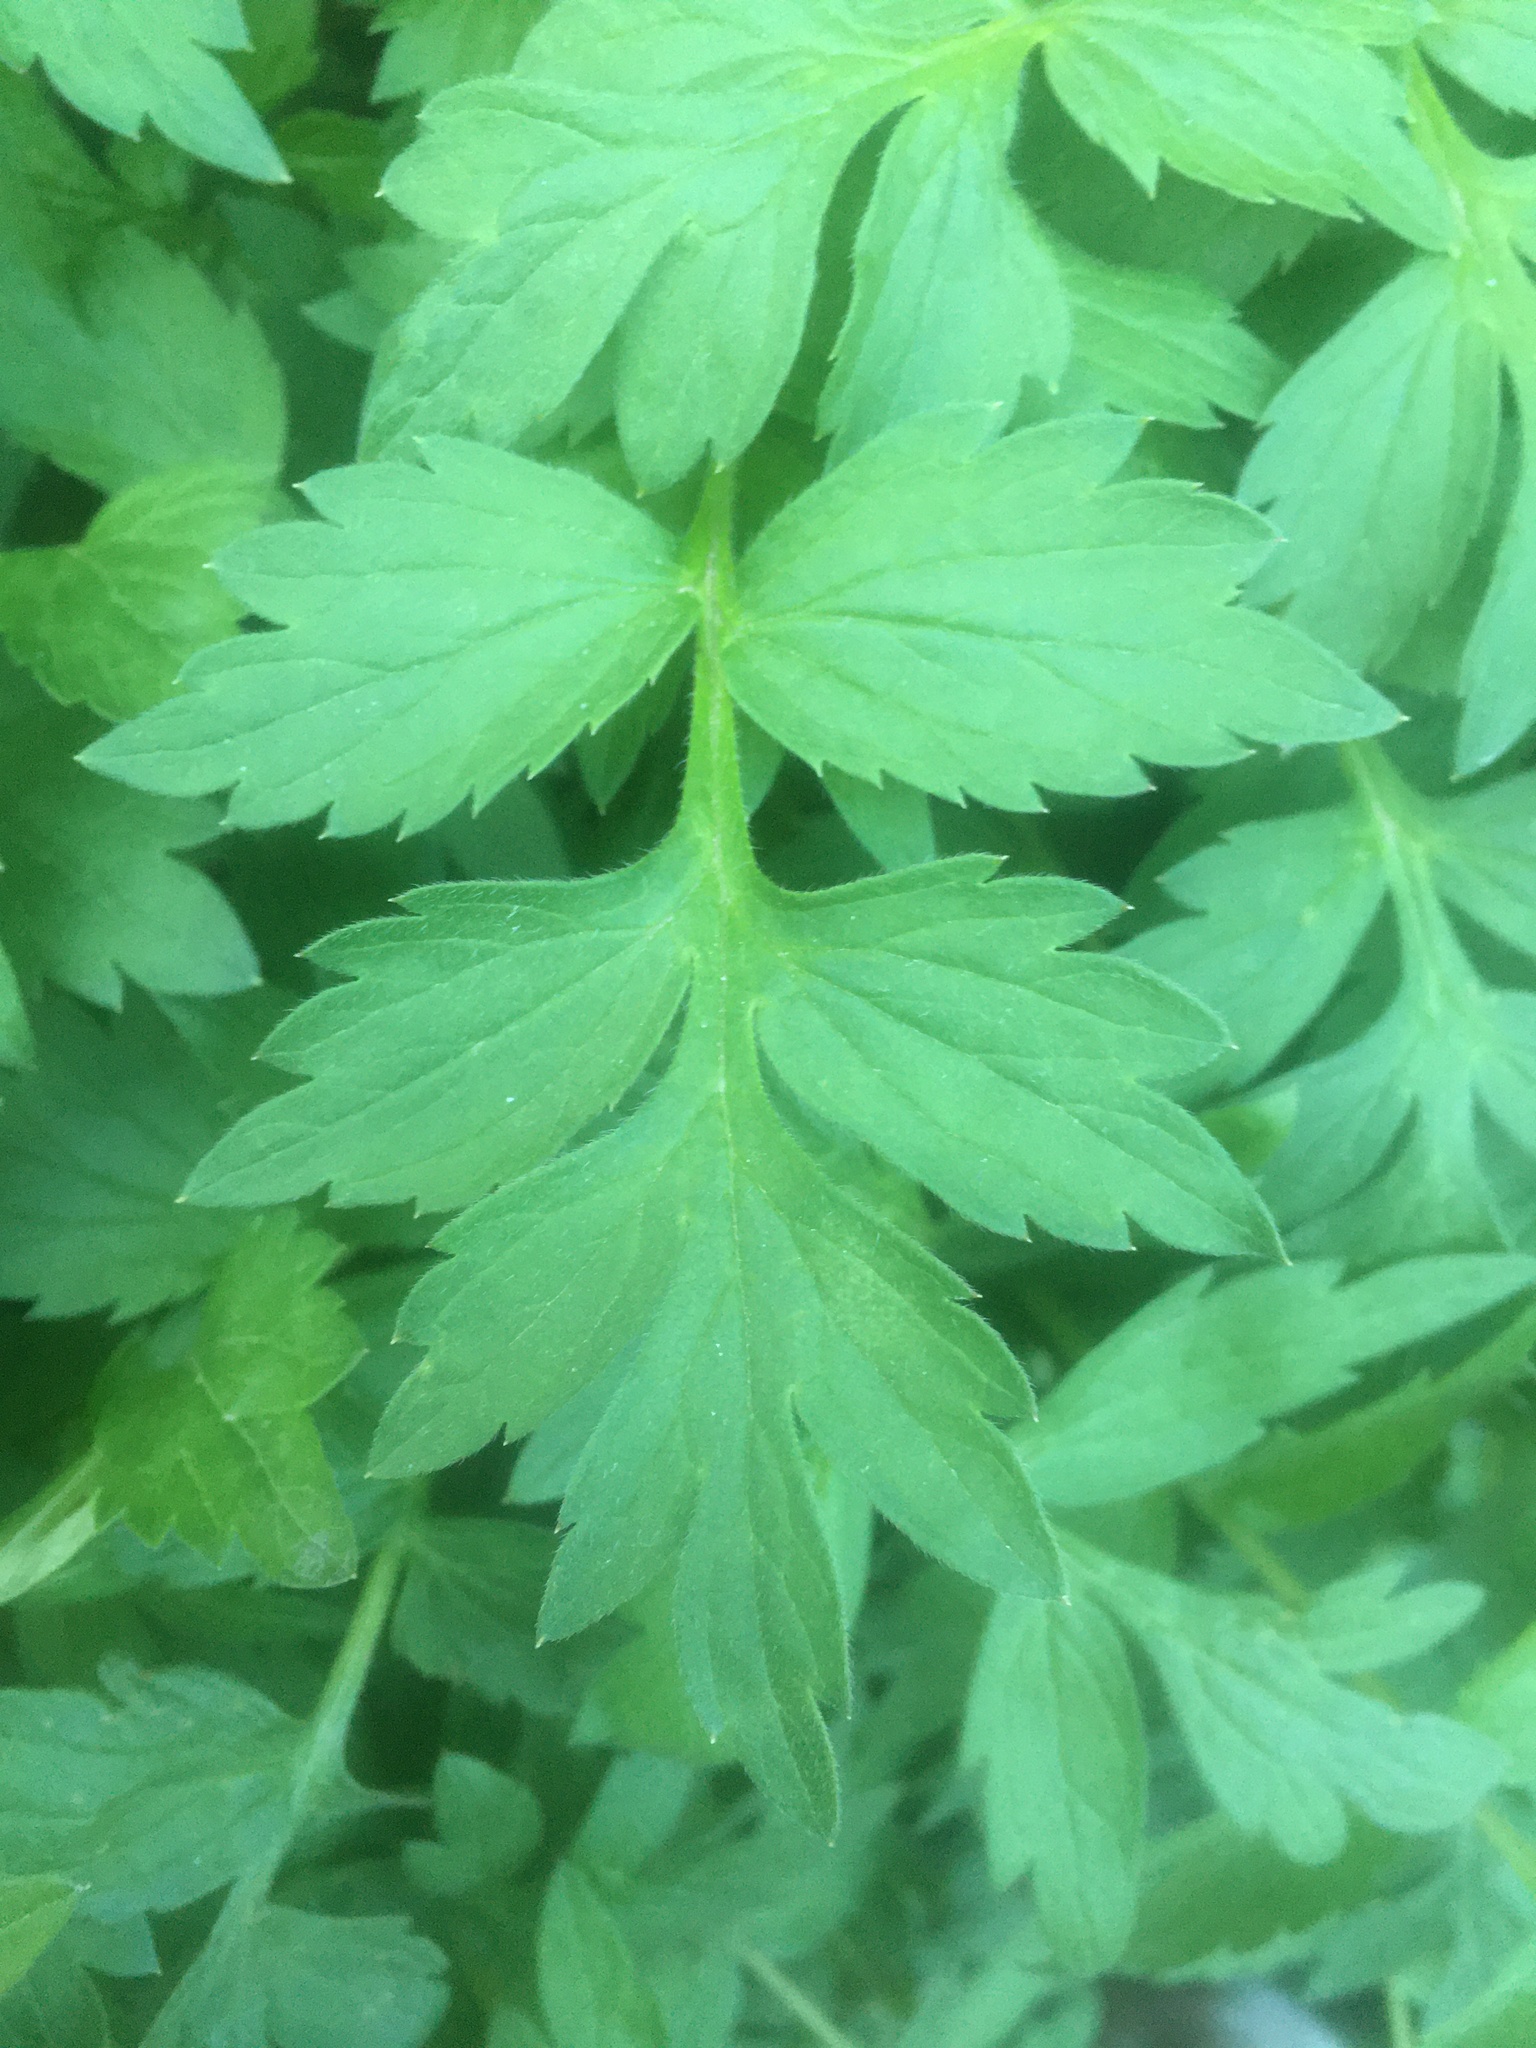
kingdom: Plantae
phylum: Tracheophyta
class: Magnoliopsida
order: Boraginales
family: Hydrophyllaceae
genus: Hydrophyllum
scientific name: Hydrophyllum fendleri
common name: Fendler's waterleaf
